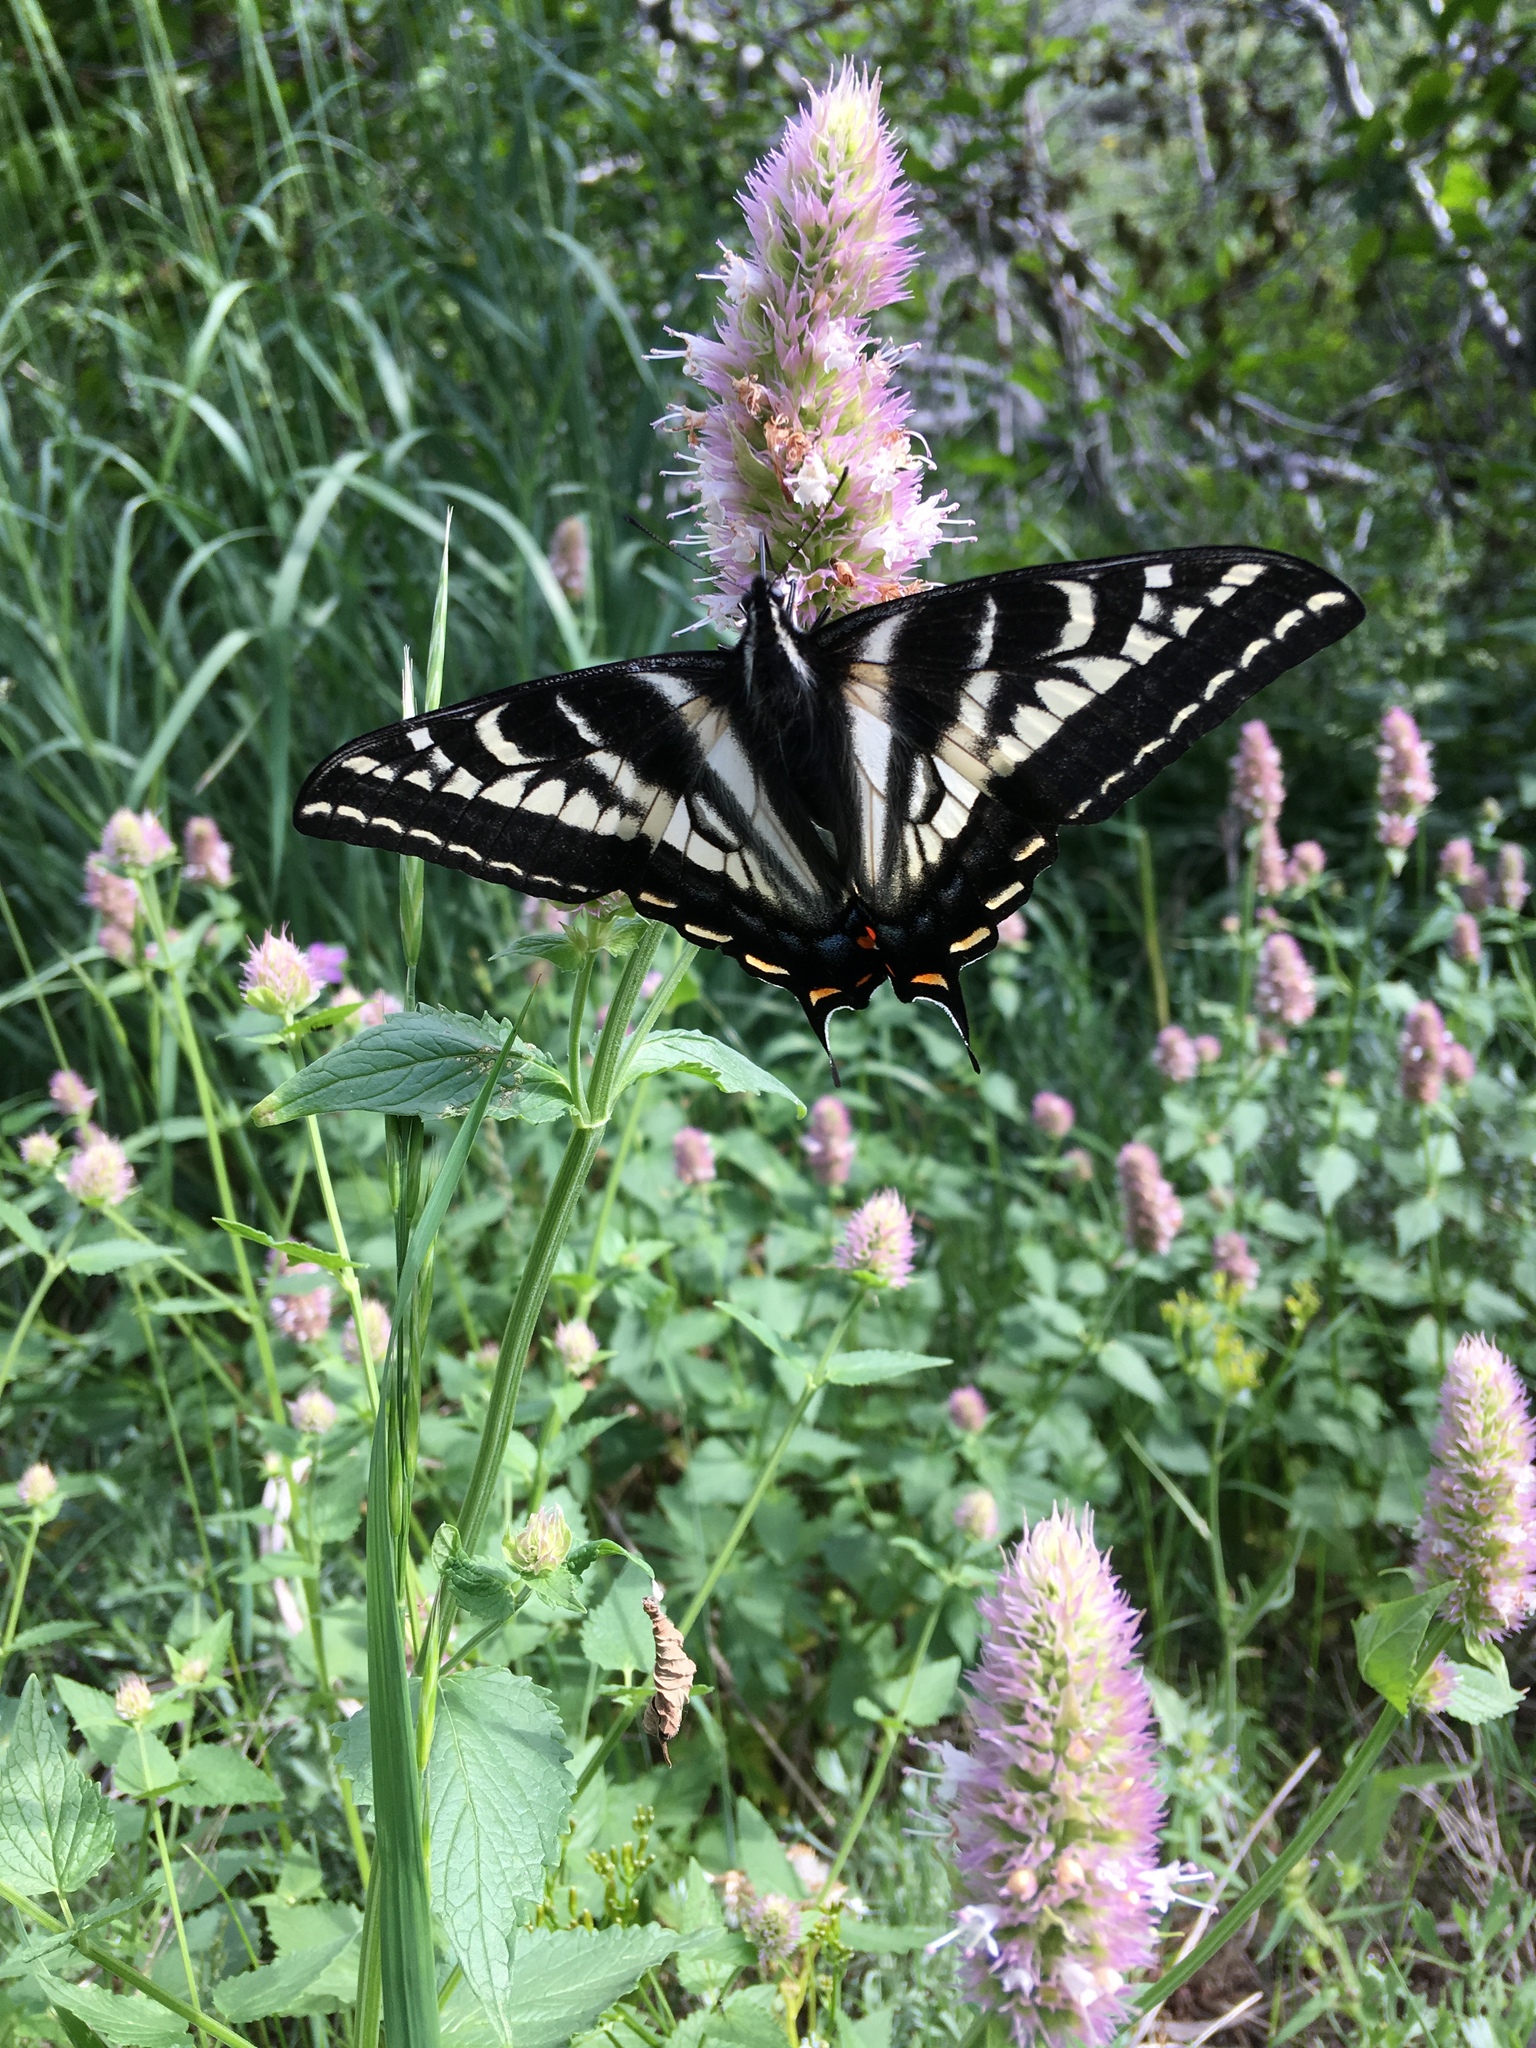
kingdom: Animalia
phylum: Arthropoda
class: Insecta
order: Lepidoptera
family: Papilionidae
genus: Papilio
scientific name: Papilio eurymedon
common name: Pale tiger swallowtail
